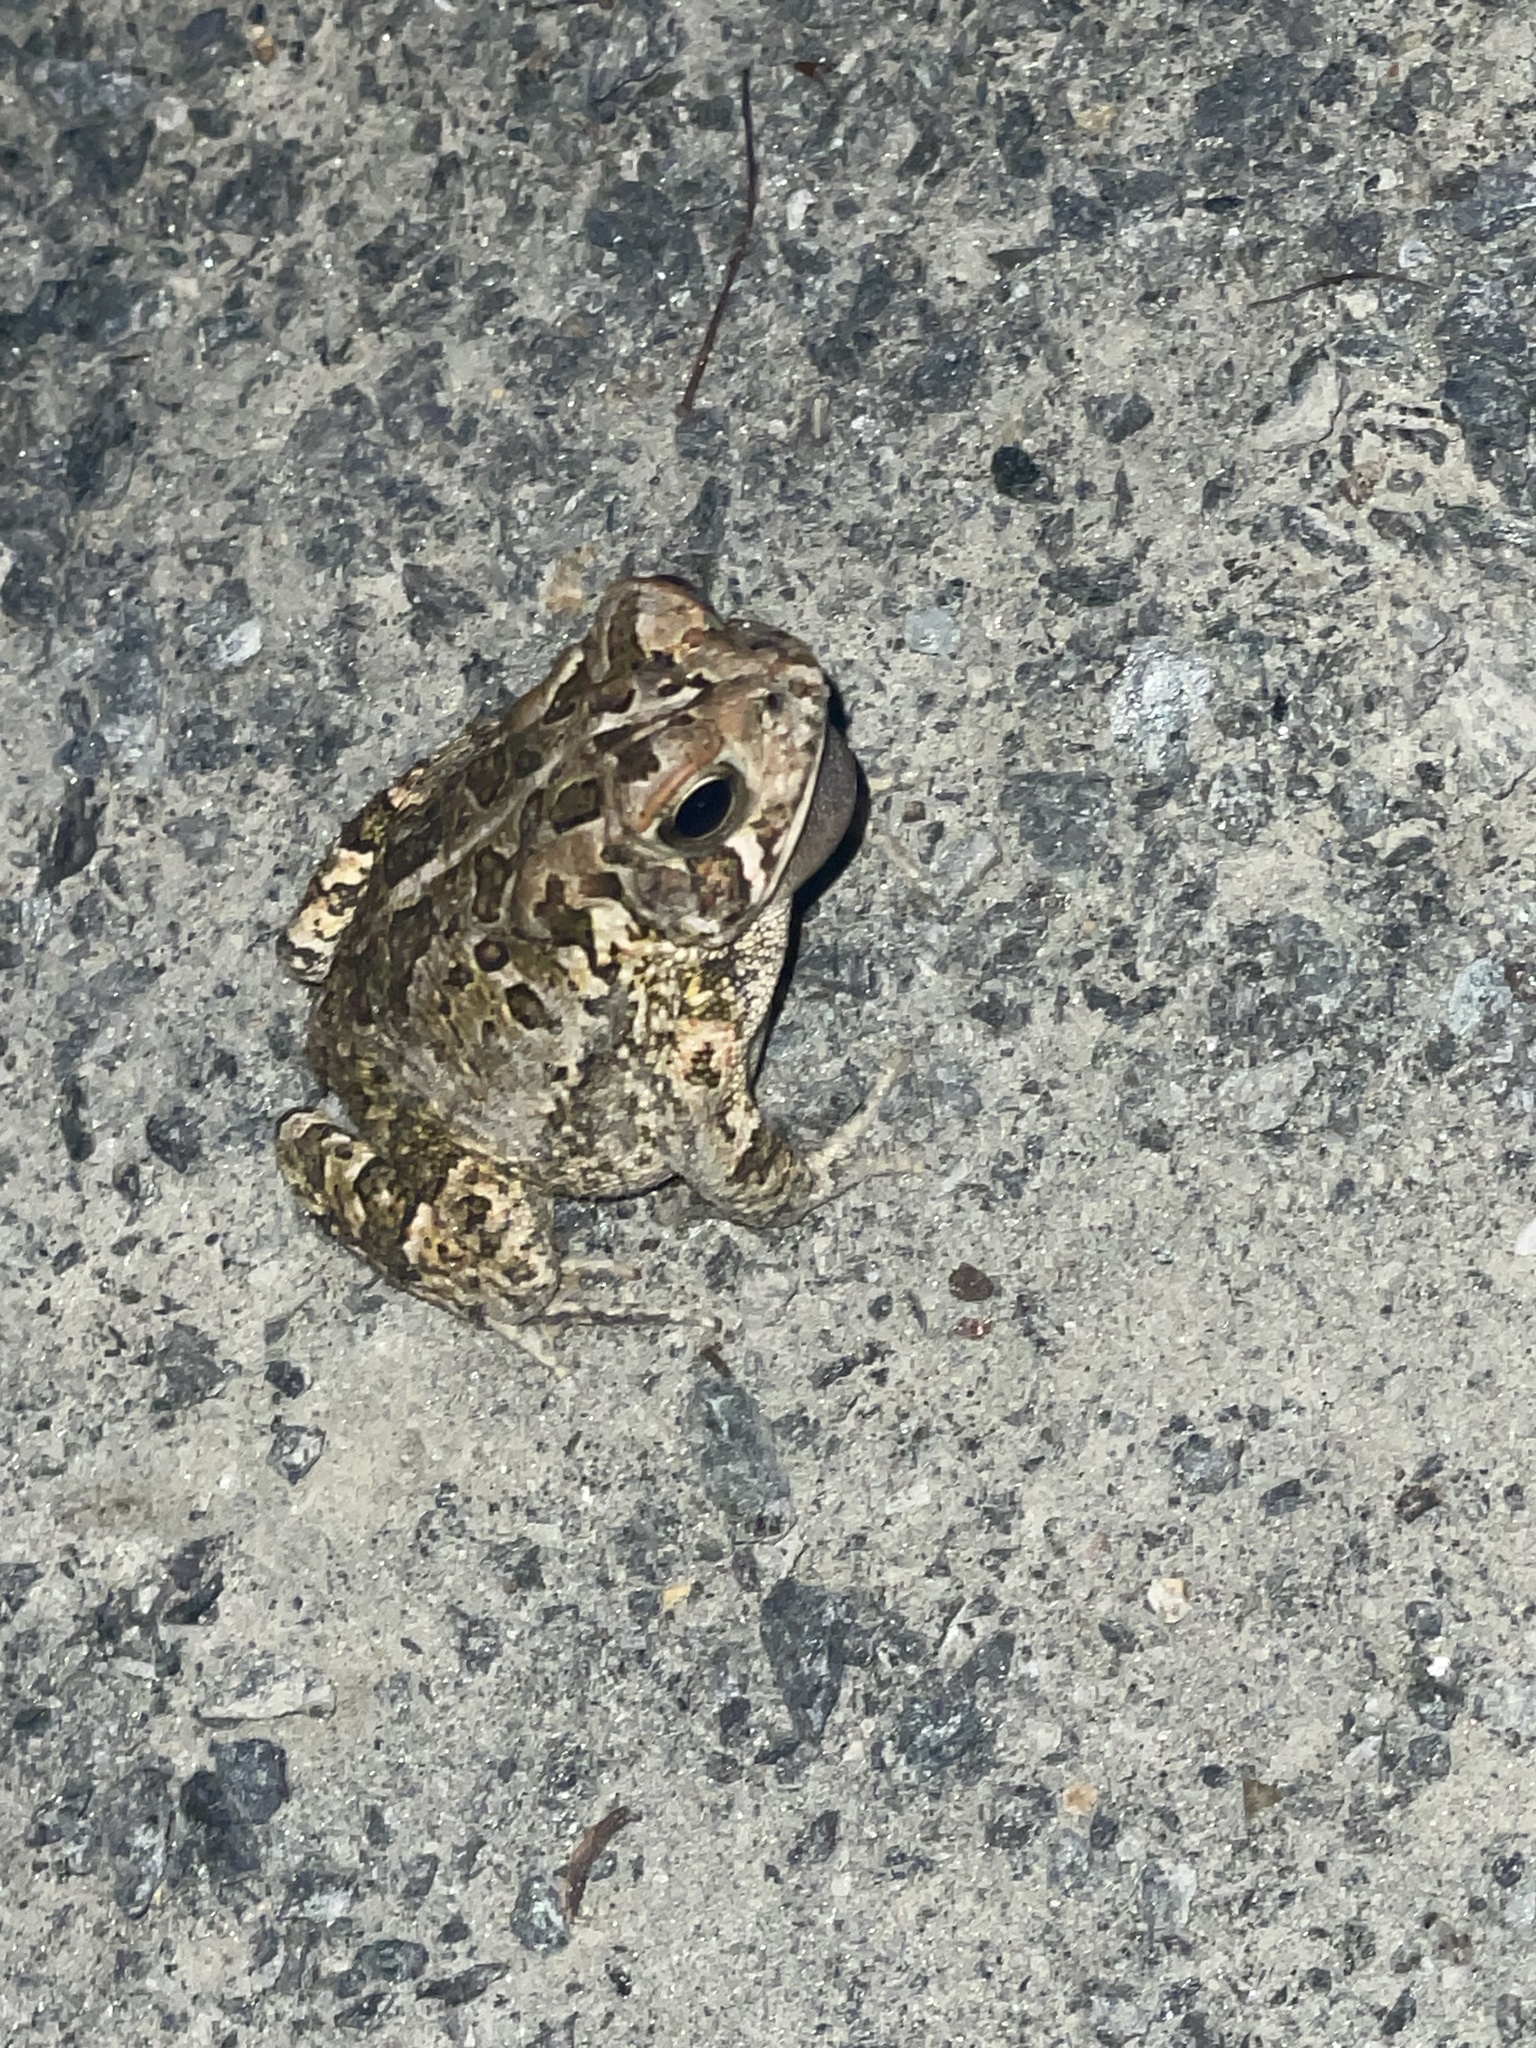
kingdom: Animalia
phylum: Chordata
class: Amphibia
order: Anura
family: Bufonidae
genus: Anaxyrus
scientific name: Anaxyrus fowleri
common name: Fowler's toad
